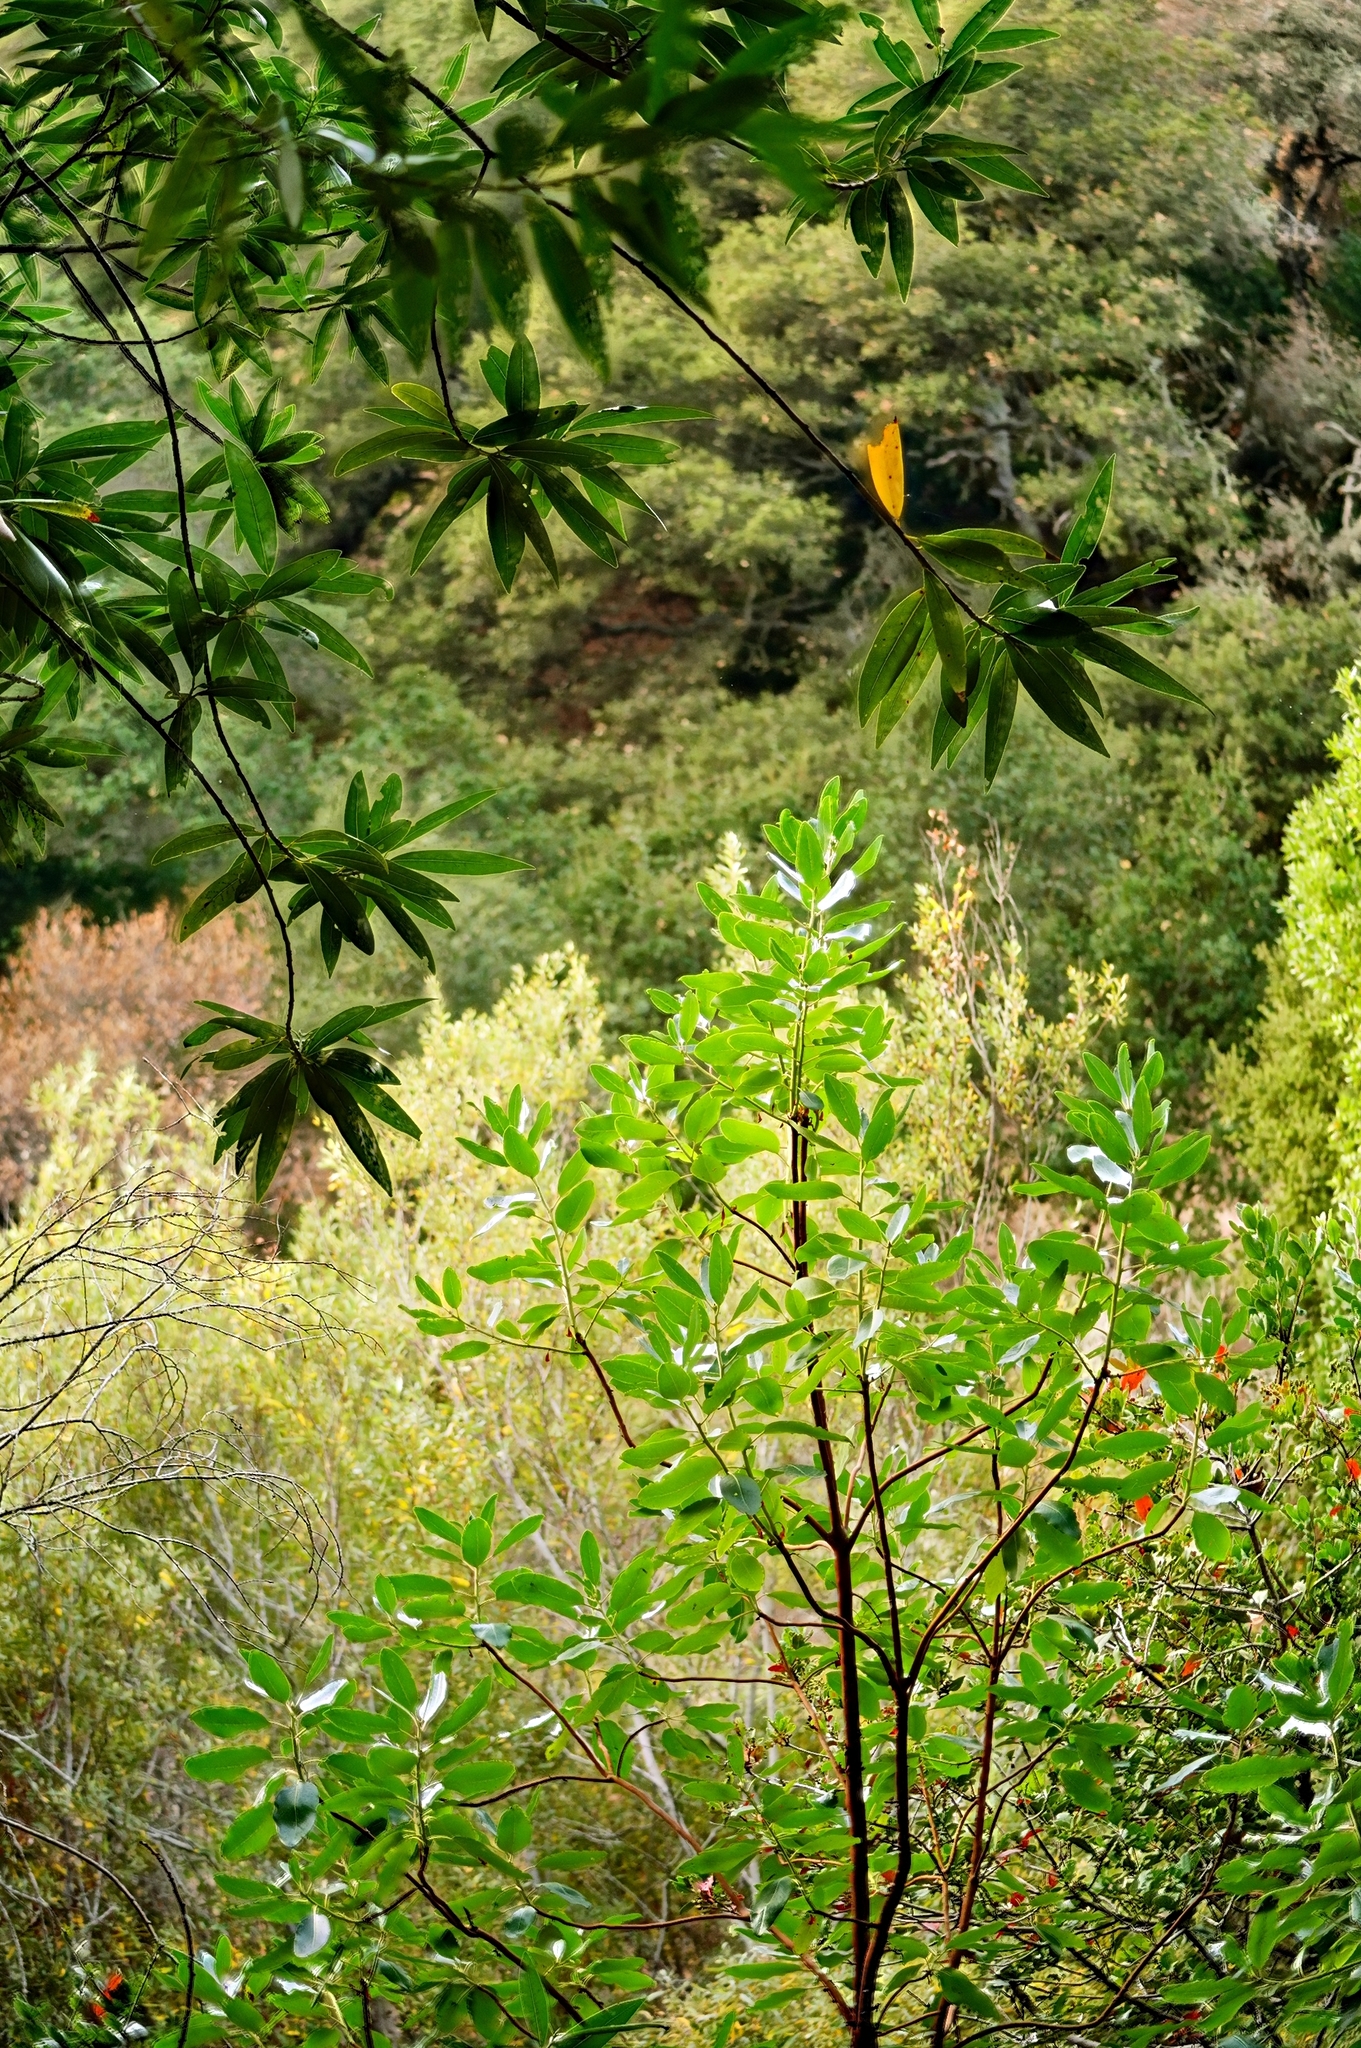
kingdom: Plantae
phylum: Tracheophyta
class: Magnoliopsida
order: Ericales
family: Ericaceae
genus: Arbutus
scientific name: Arbutus menziesii
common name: Pacific madrone
